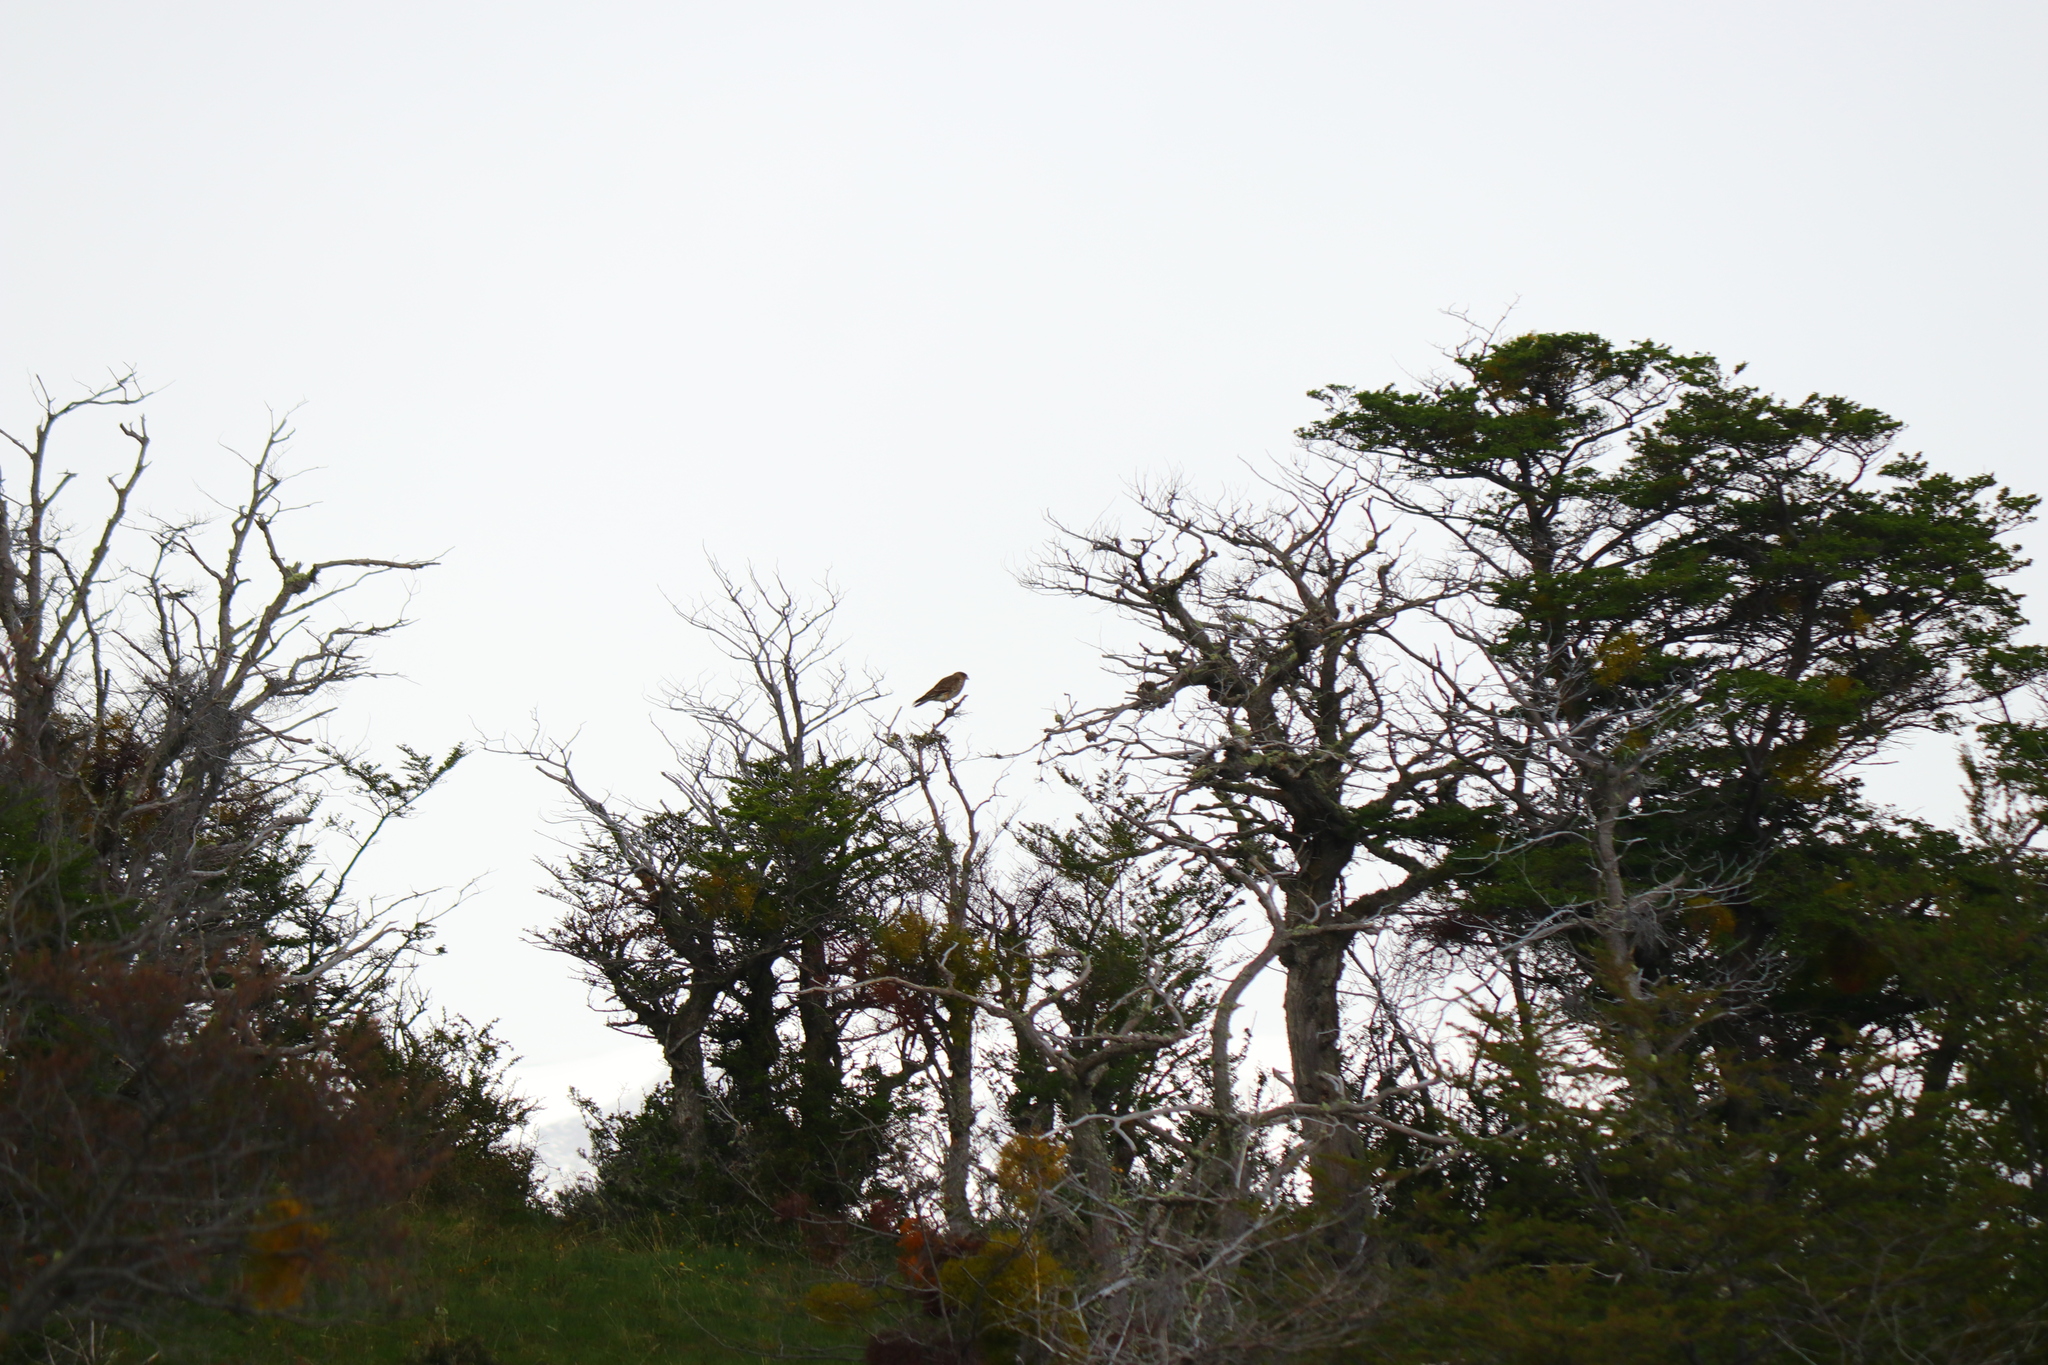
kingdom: Animalia
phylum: Chordata
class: Aves
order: Falconiformes
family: Falconidae
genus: Daptrius
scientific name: Daptrius
